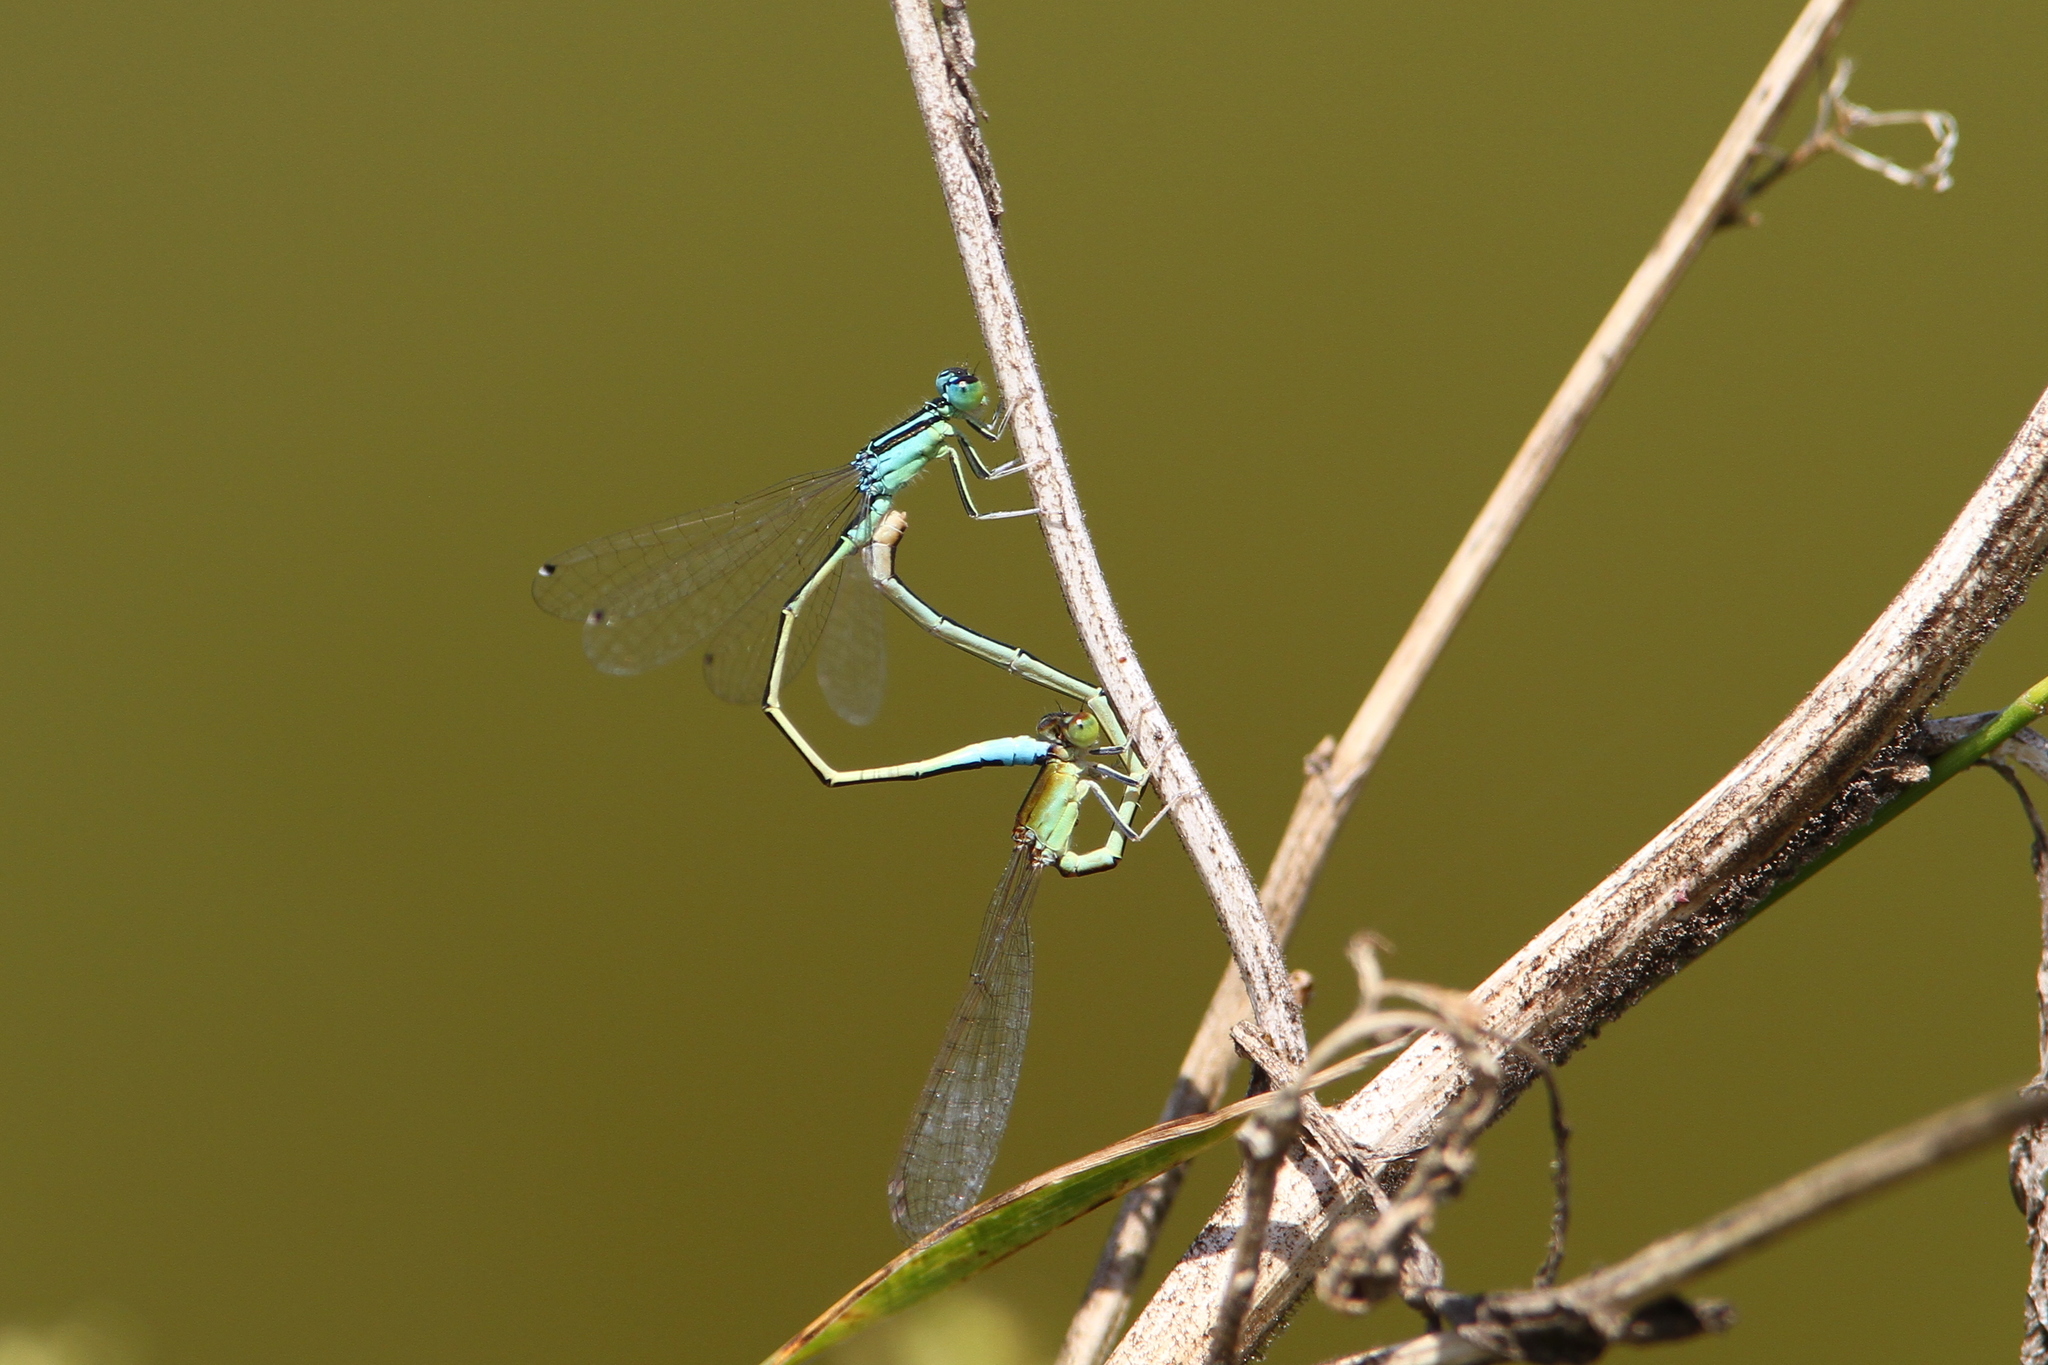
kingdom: Animalia
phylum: Arthropoda
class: Insecta
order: Odonata
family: Coenagrionidae
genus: Ischnura
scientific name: Ischnura pumilio
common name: Scarce blue-tailed damselfly
